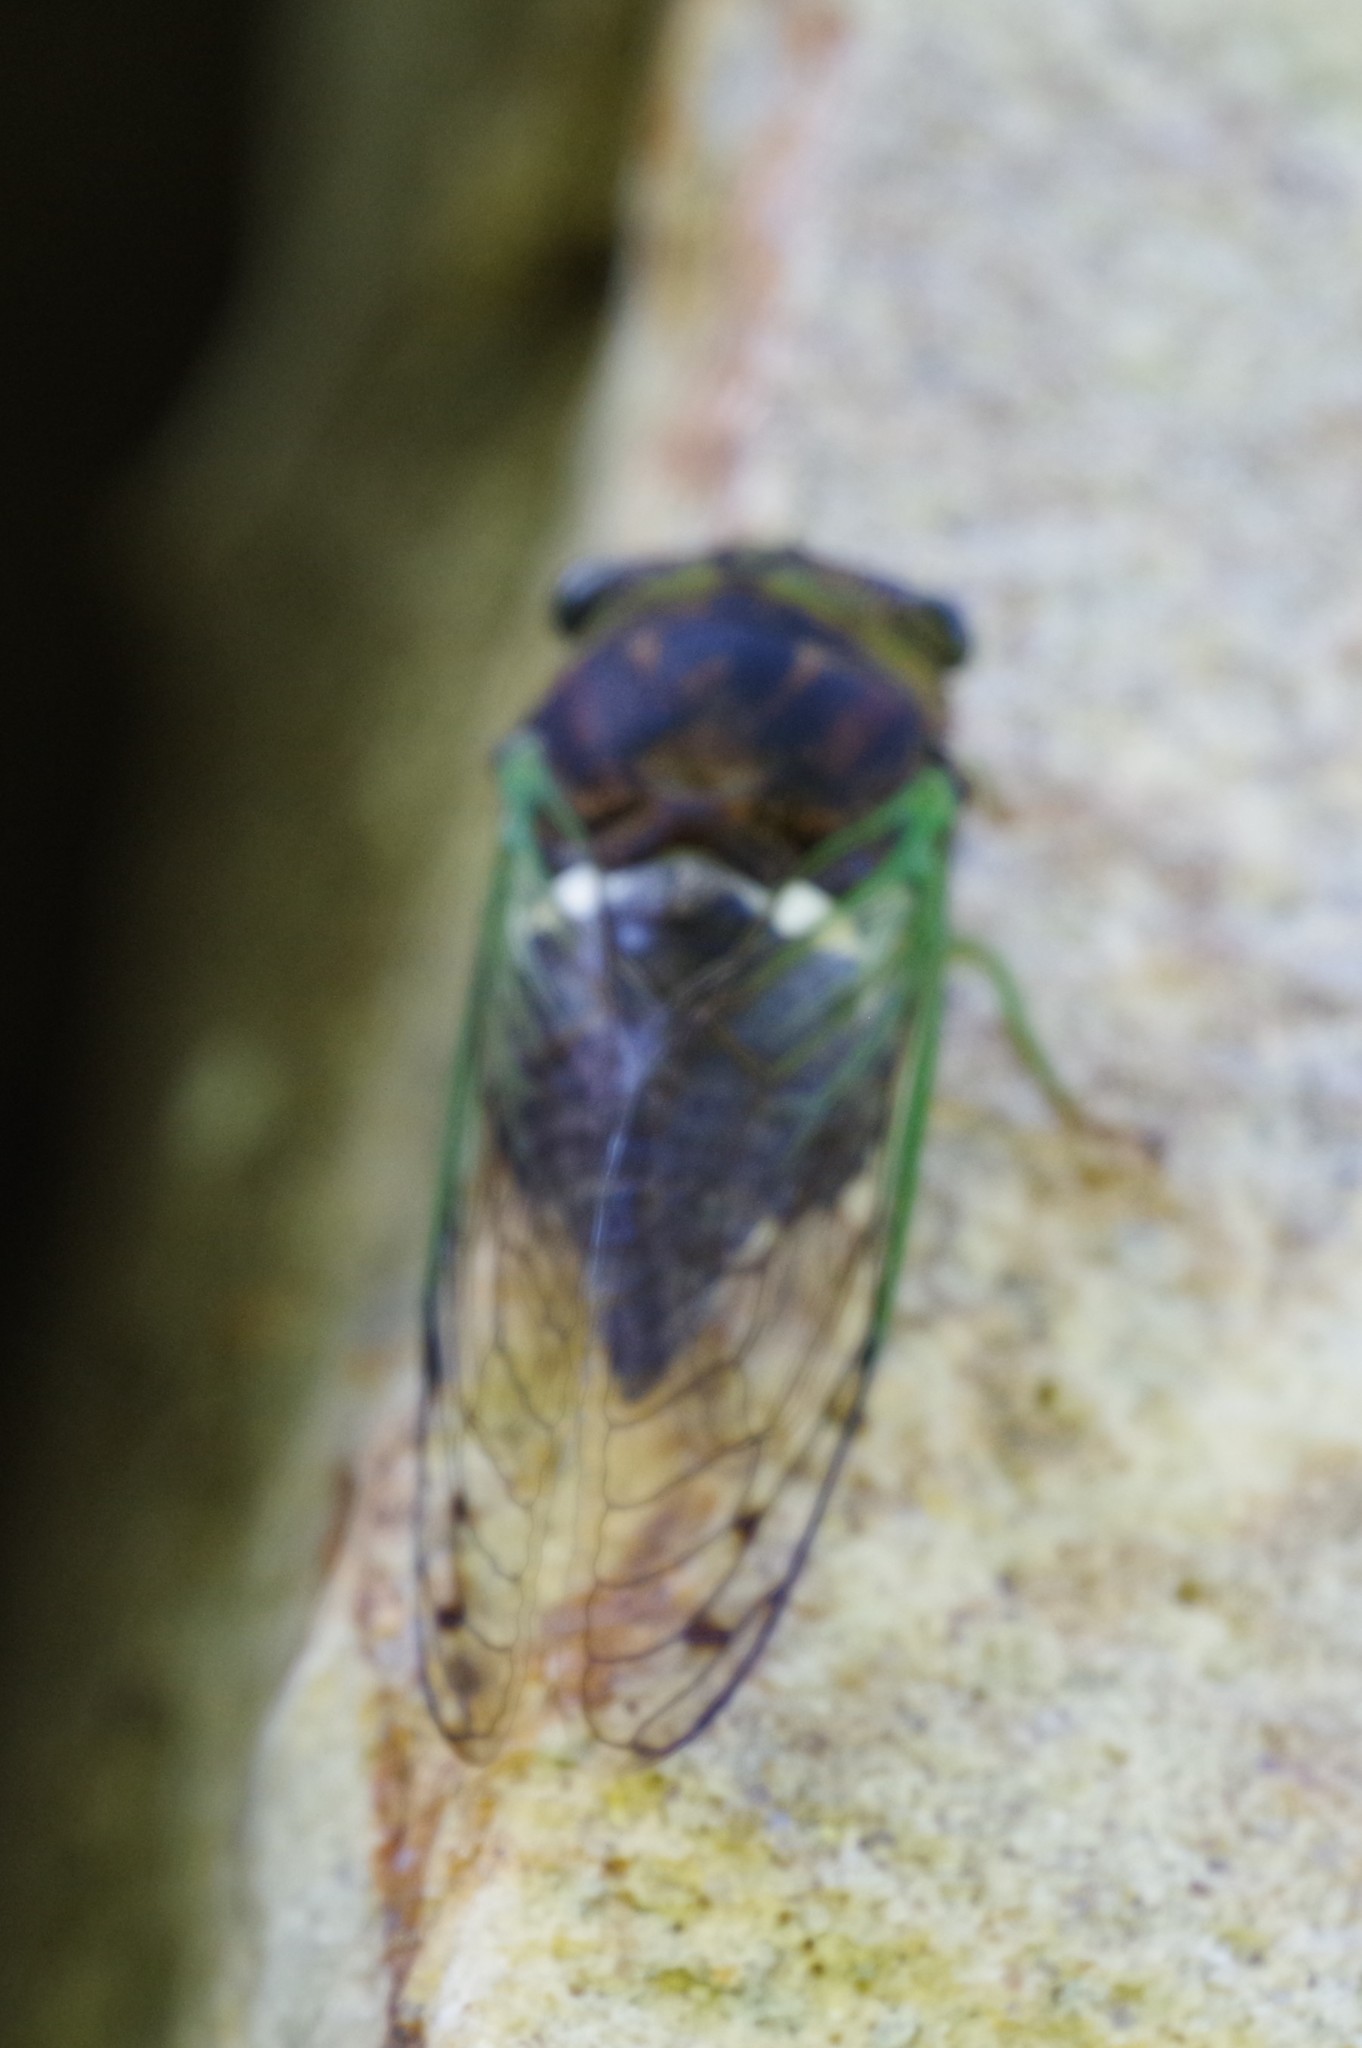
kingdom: Animalia
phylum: Arthropoda
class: Insecta
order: Hemiptera
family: Cicadidae
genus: Neotibicen
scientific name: Neotibicen tibicen
